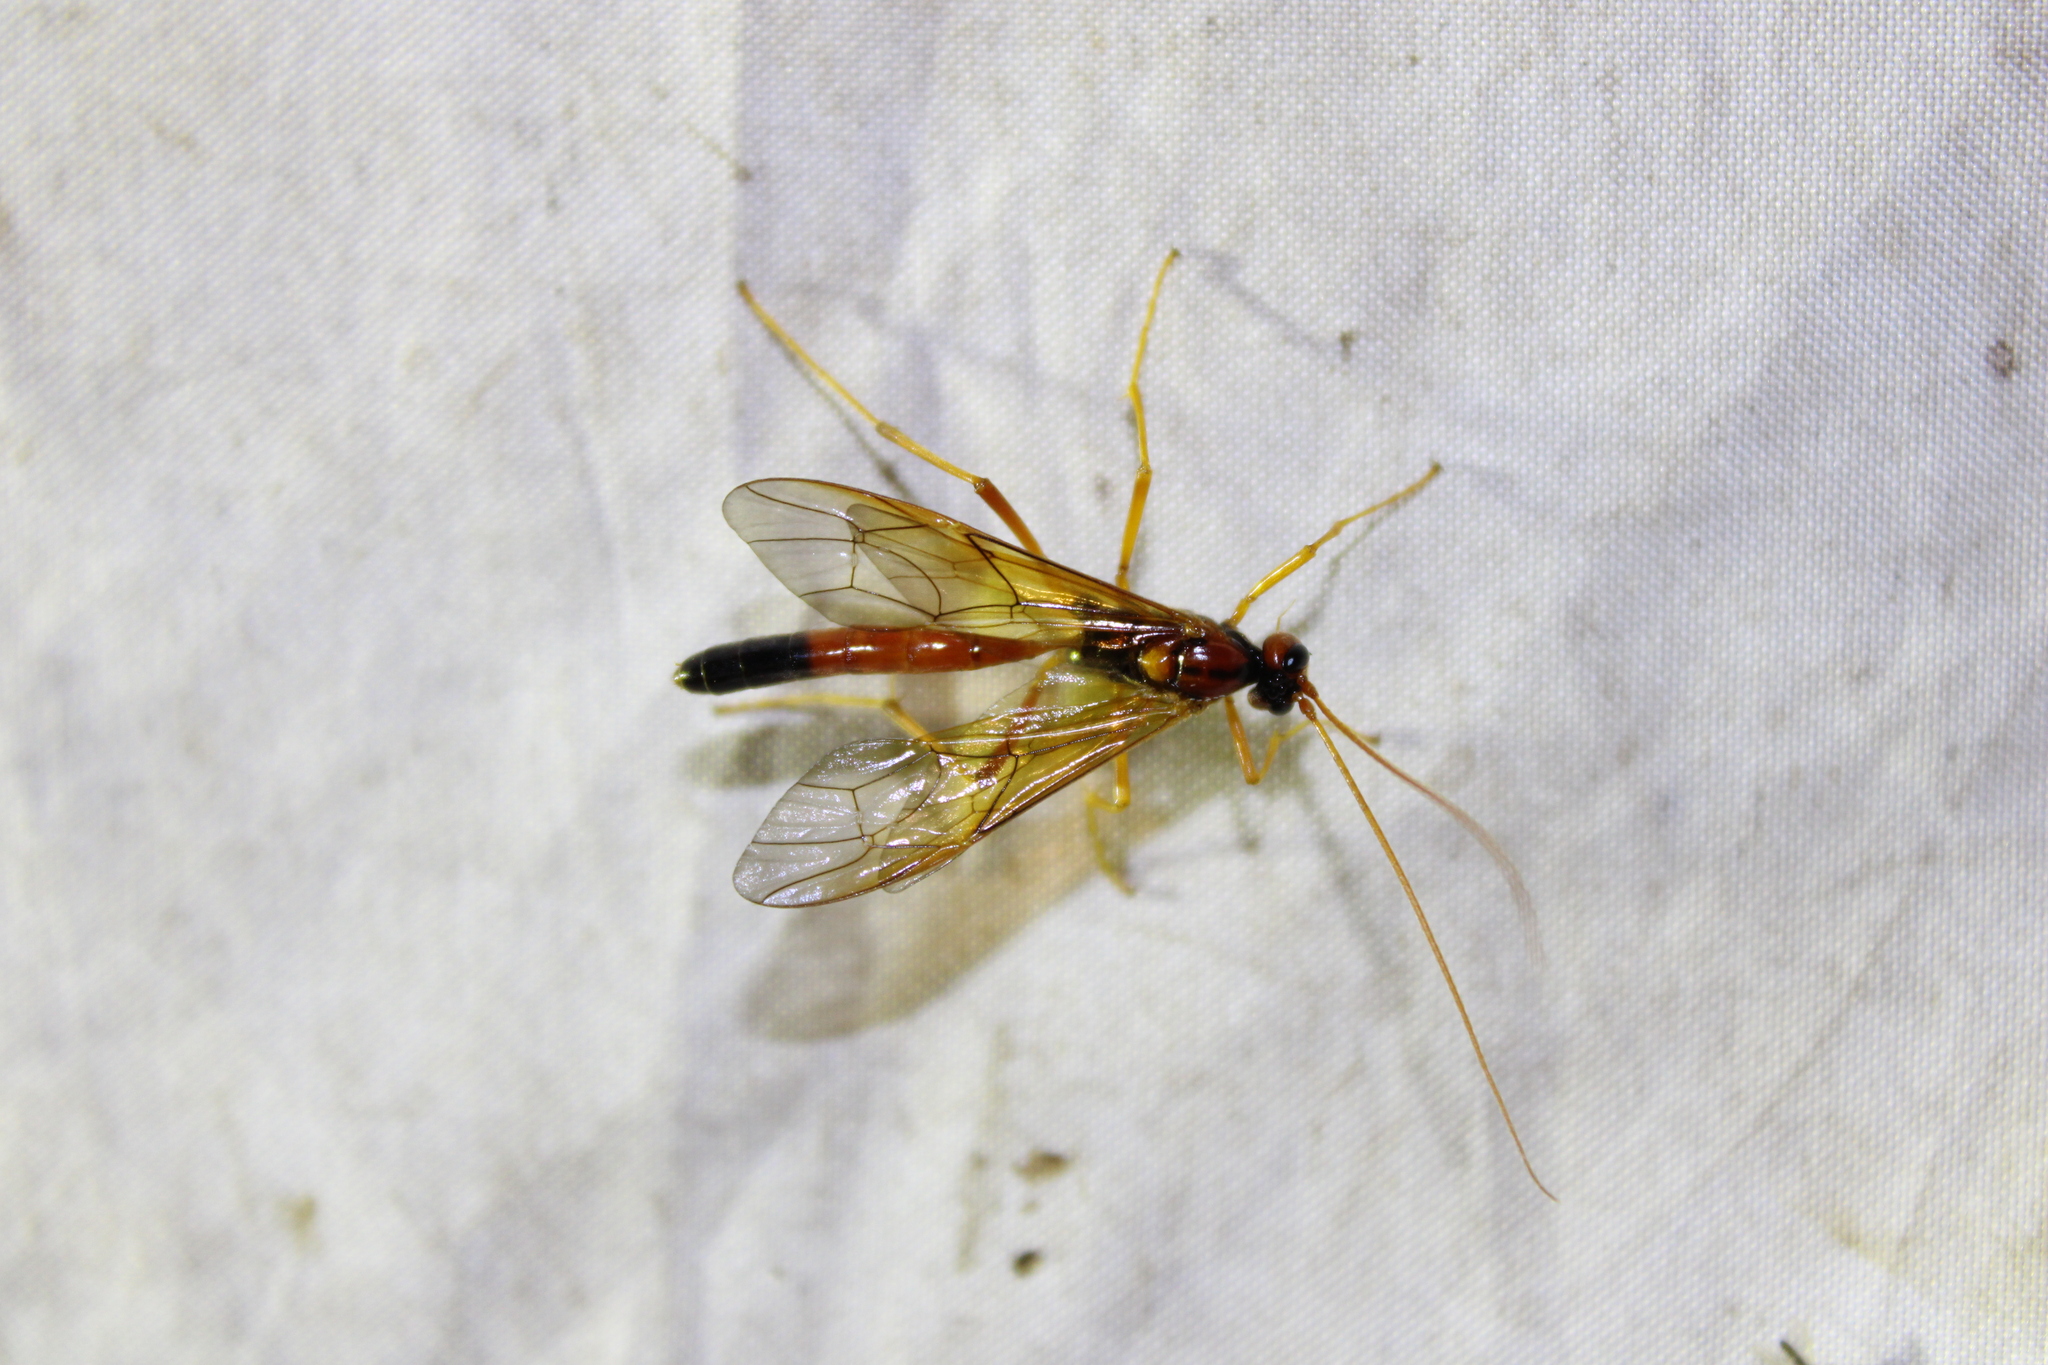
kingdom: Animalia
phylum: Arthropoda
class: Insecta
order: Hymenoptera
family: Ichneumonidae
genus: Opheltes
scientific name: Opheltes glaucopterus
